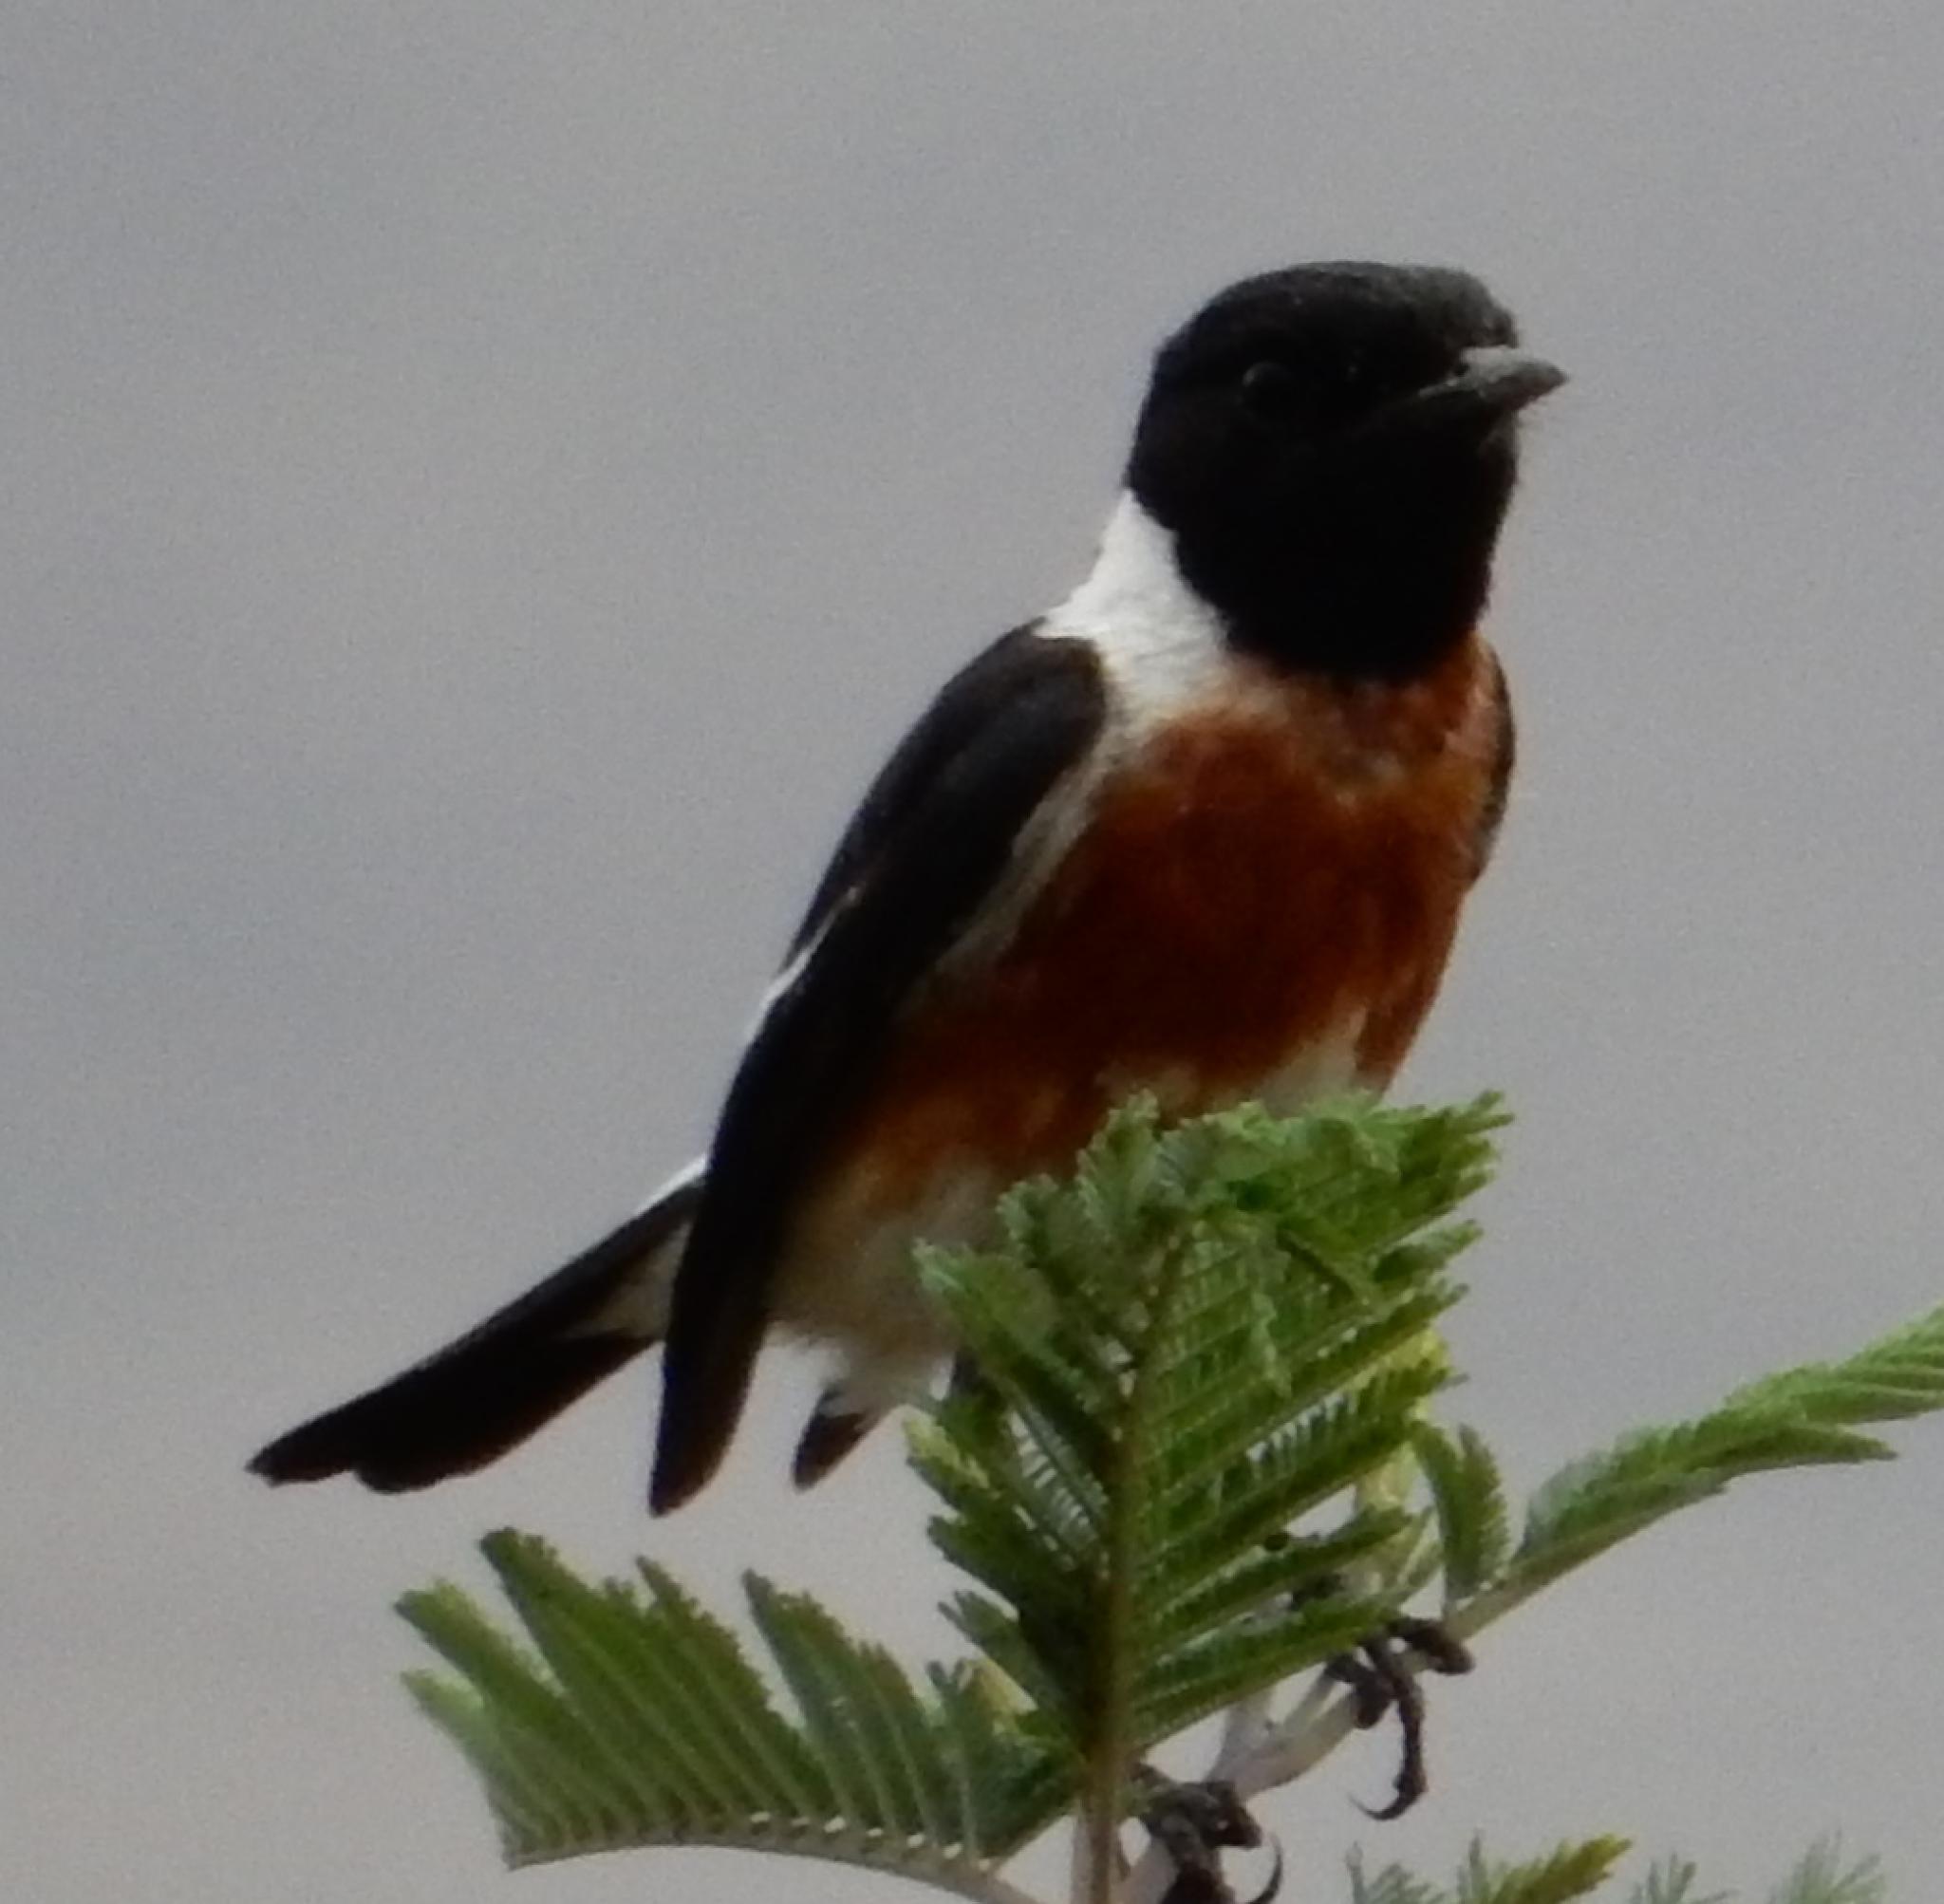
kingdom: Animalia
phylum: Chordata
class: Aves
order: Passeriformes
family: Muscicapidae
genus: Saxicola
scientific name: Saxicola torquatus
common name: African stonechat
